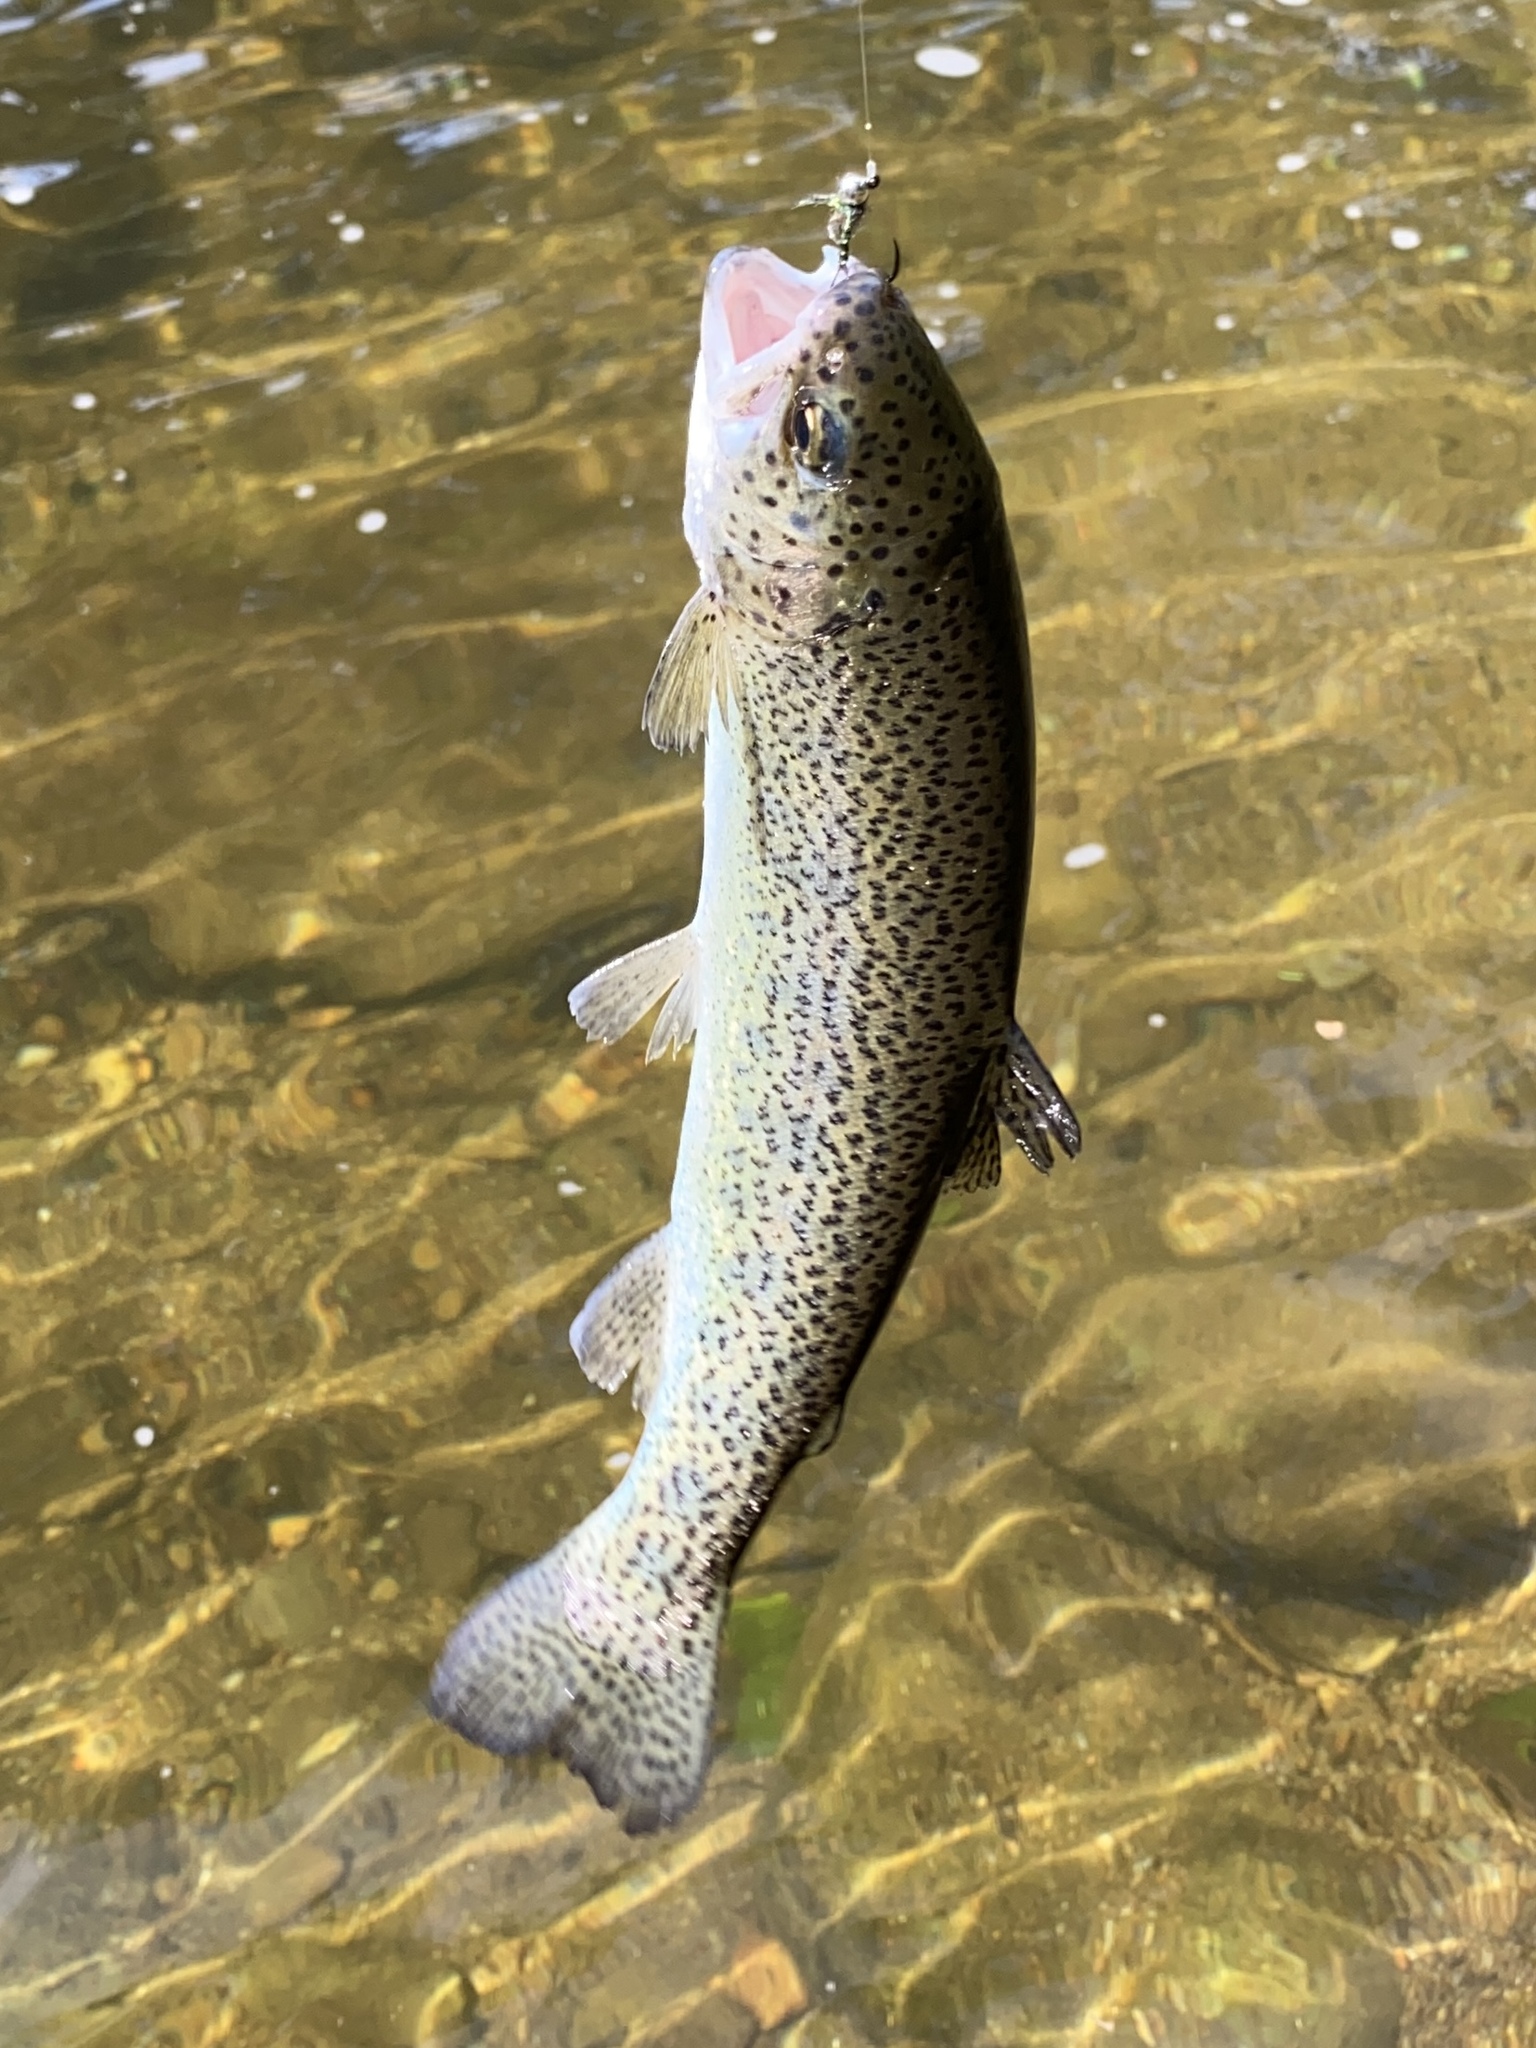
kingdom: Animalia
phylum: Chordata
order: Salmoniformes
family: Salmonidae
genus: Oncorhynchus
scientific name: Oncorhynchus mykiss
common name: Rainbow trout
